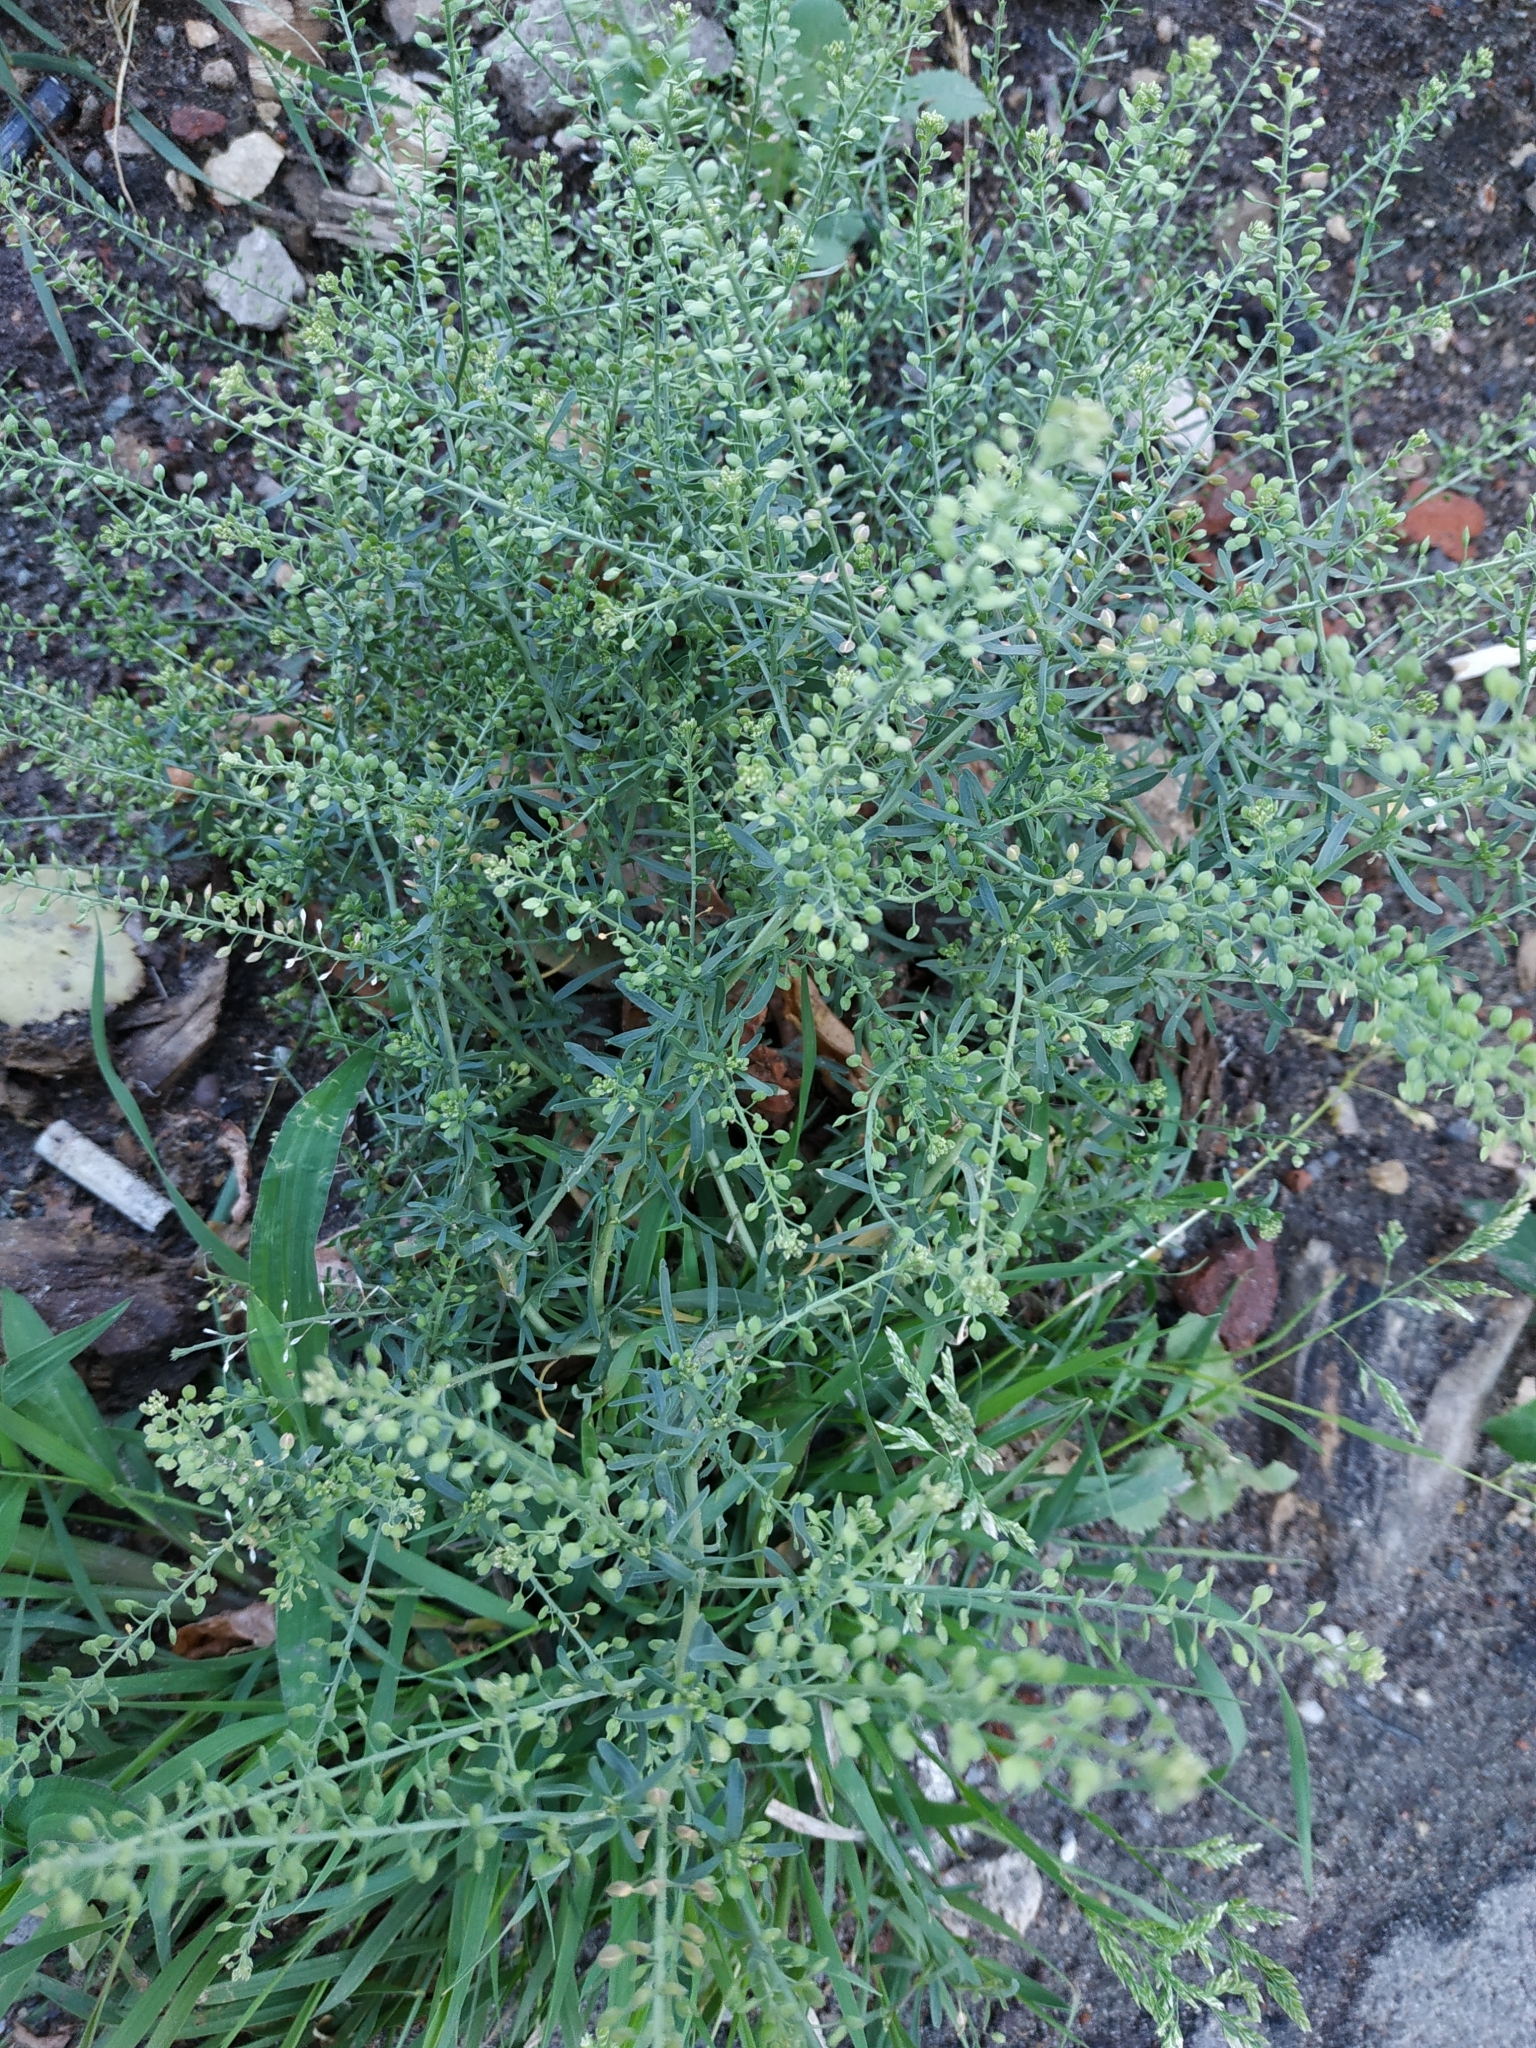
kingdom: Plantae
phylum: Tracheophyta
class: Magnoliopsida
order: Brassicales
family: Brassicaceae
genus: Lepidium
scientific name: Lepidium ruderale
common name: Narrow-leaved pepperwort
